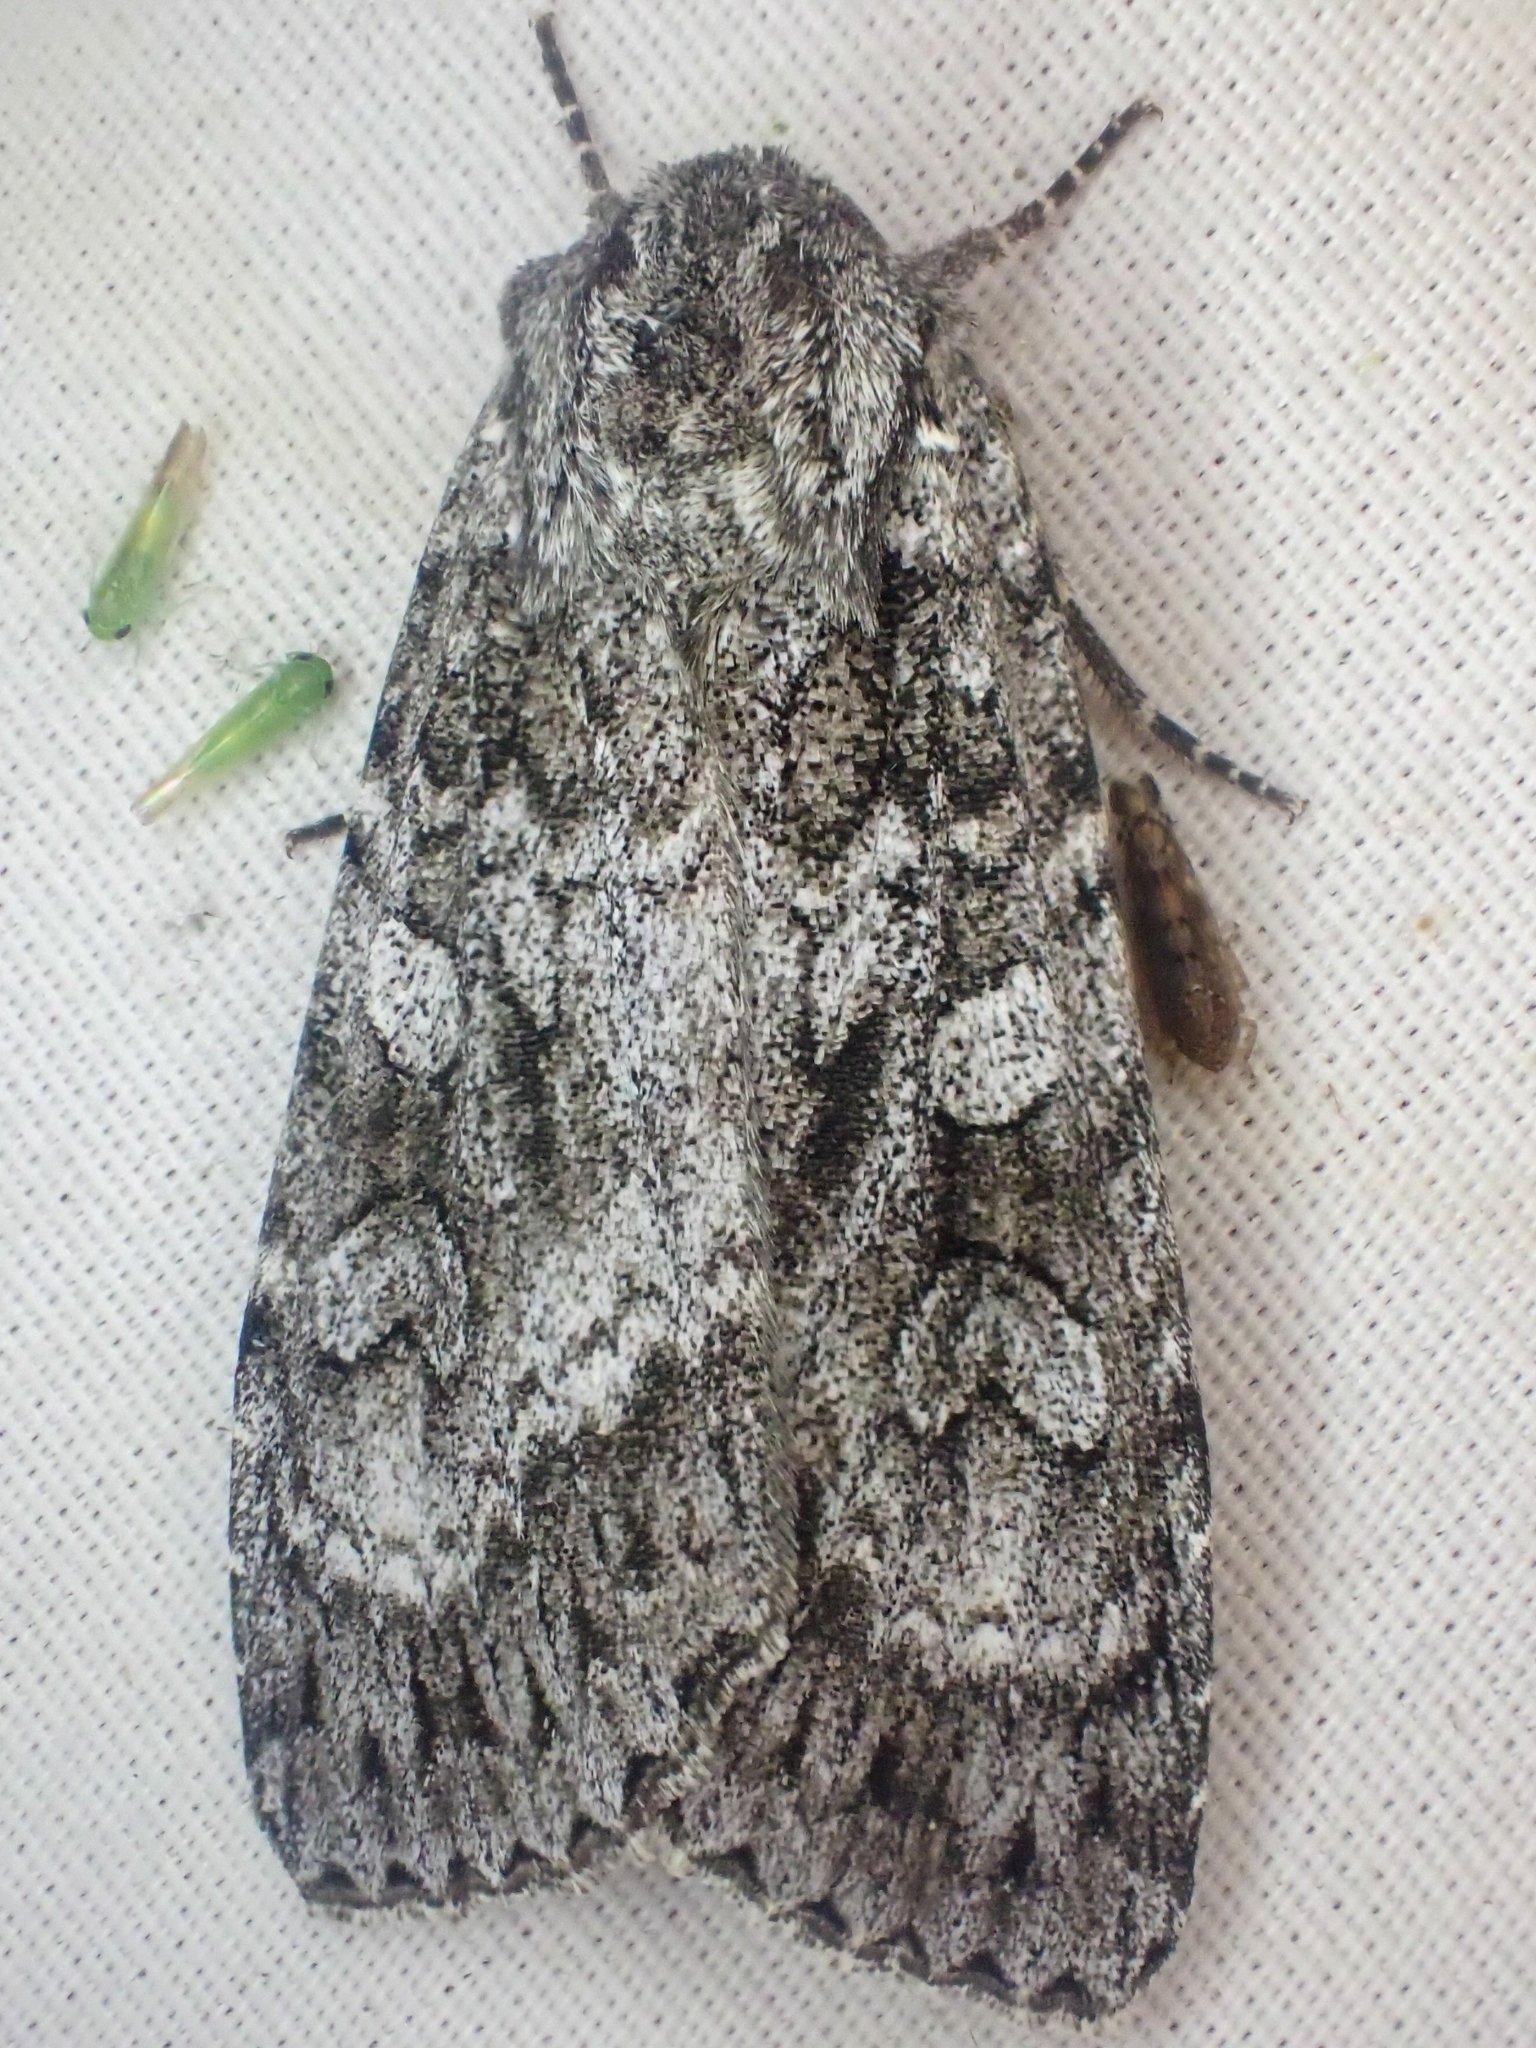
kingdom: Animalia
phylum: Arthropoda
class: Insecta
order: Lepidoptera
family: Noctuidae
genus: Eurois
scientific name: Eurois occulta
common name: Great brocade
